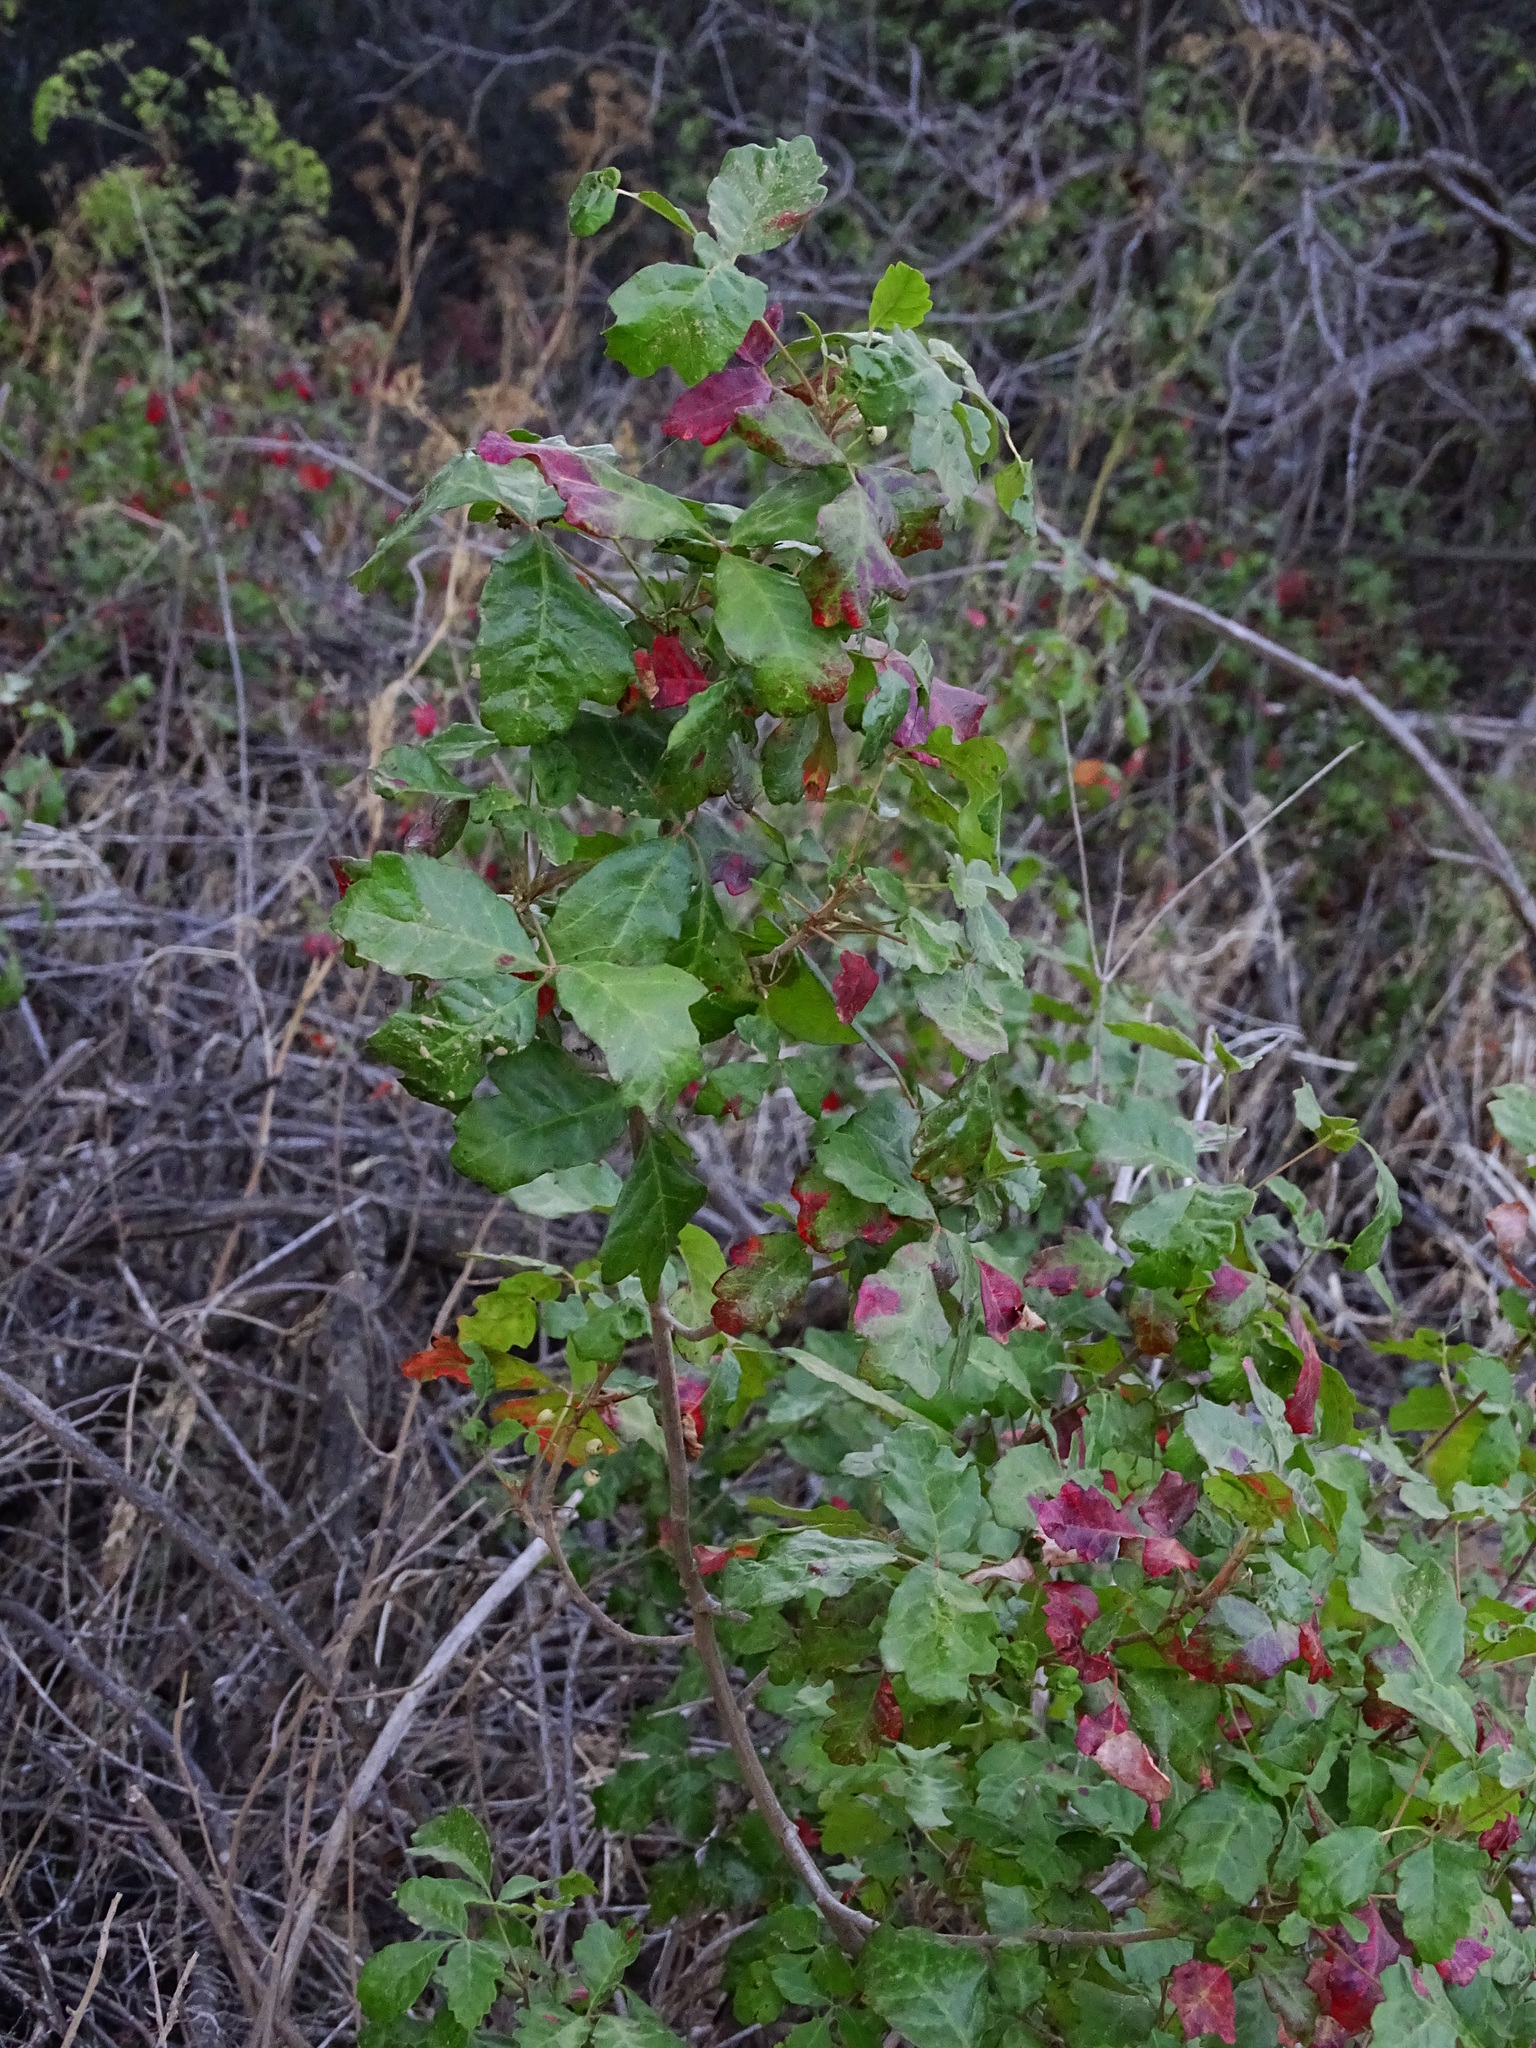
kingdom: Plantae
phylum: Tracheophyta
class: Magnoliopsida
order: Sapindales
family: Anacardiaceae
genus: Toxicodendron
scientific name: Toxicodendron diversilobum
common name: Pacific poison-oak
